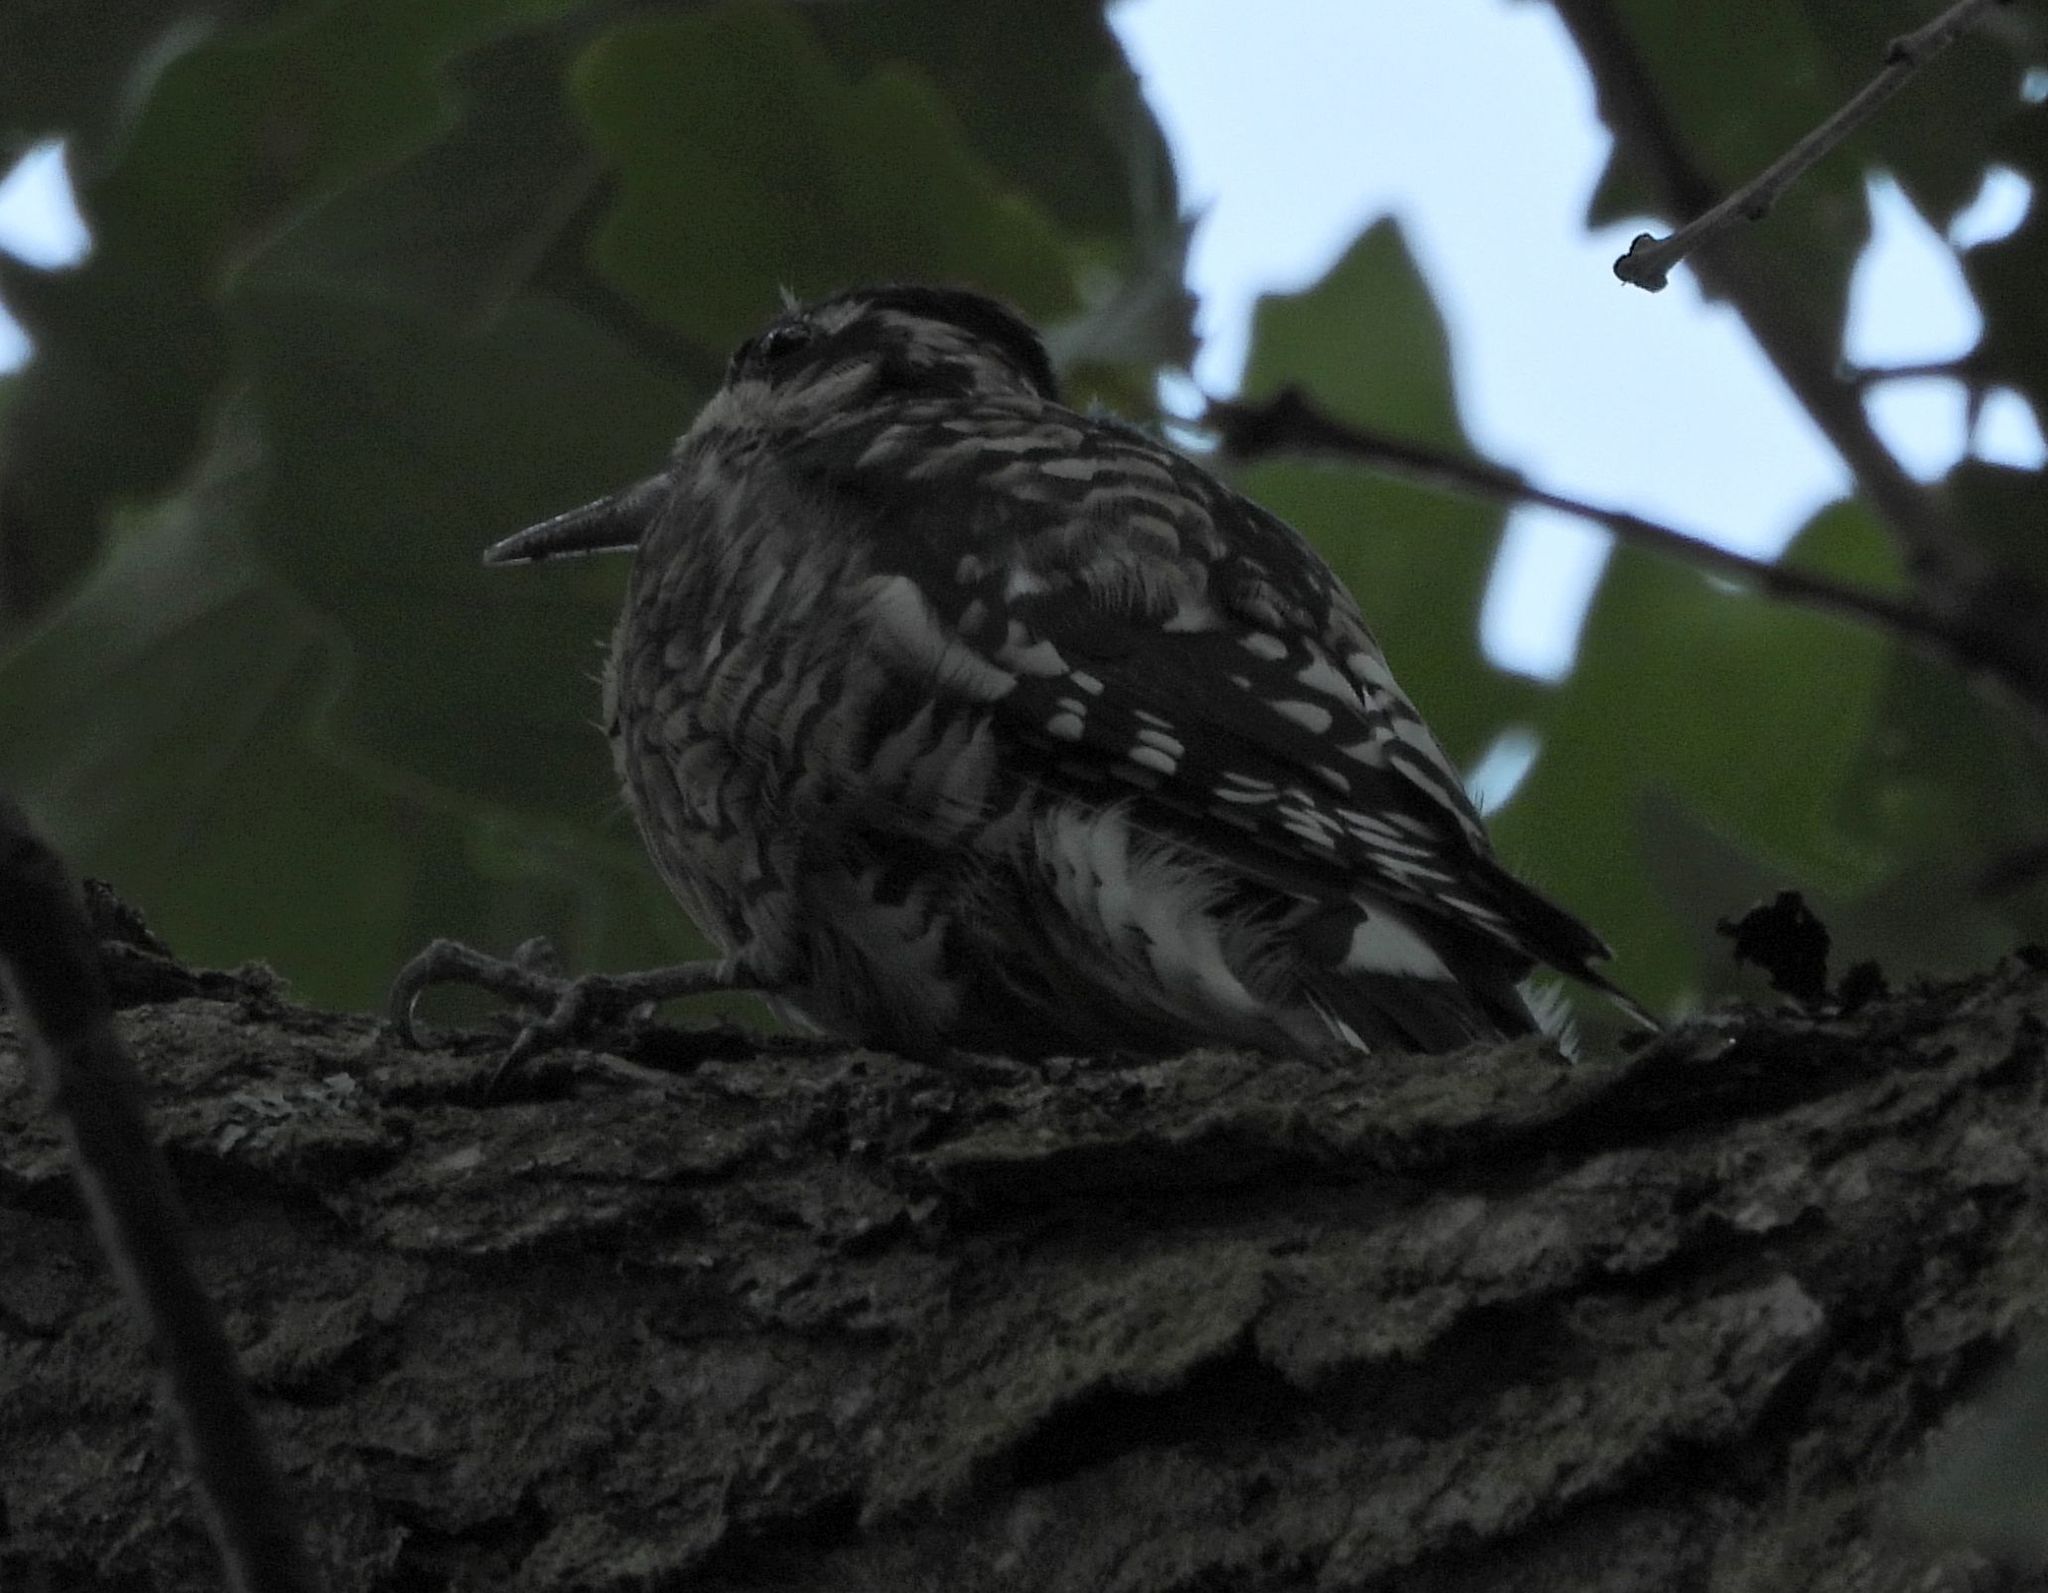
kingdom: Animalia
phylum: Chordata
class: Aves
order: Piciformes
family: Picidae
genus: Sphyrapicus
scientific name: Sphyrapicus varius
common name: Yellow-bellied sapsucker
